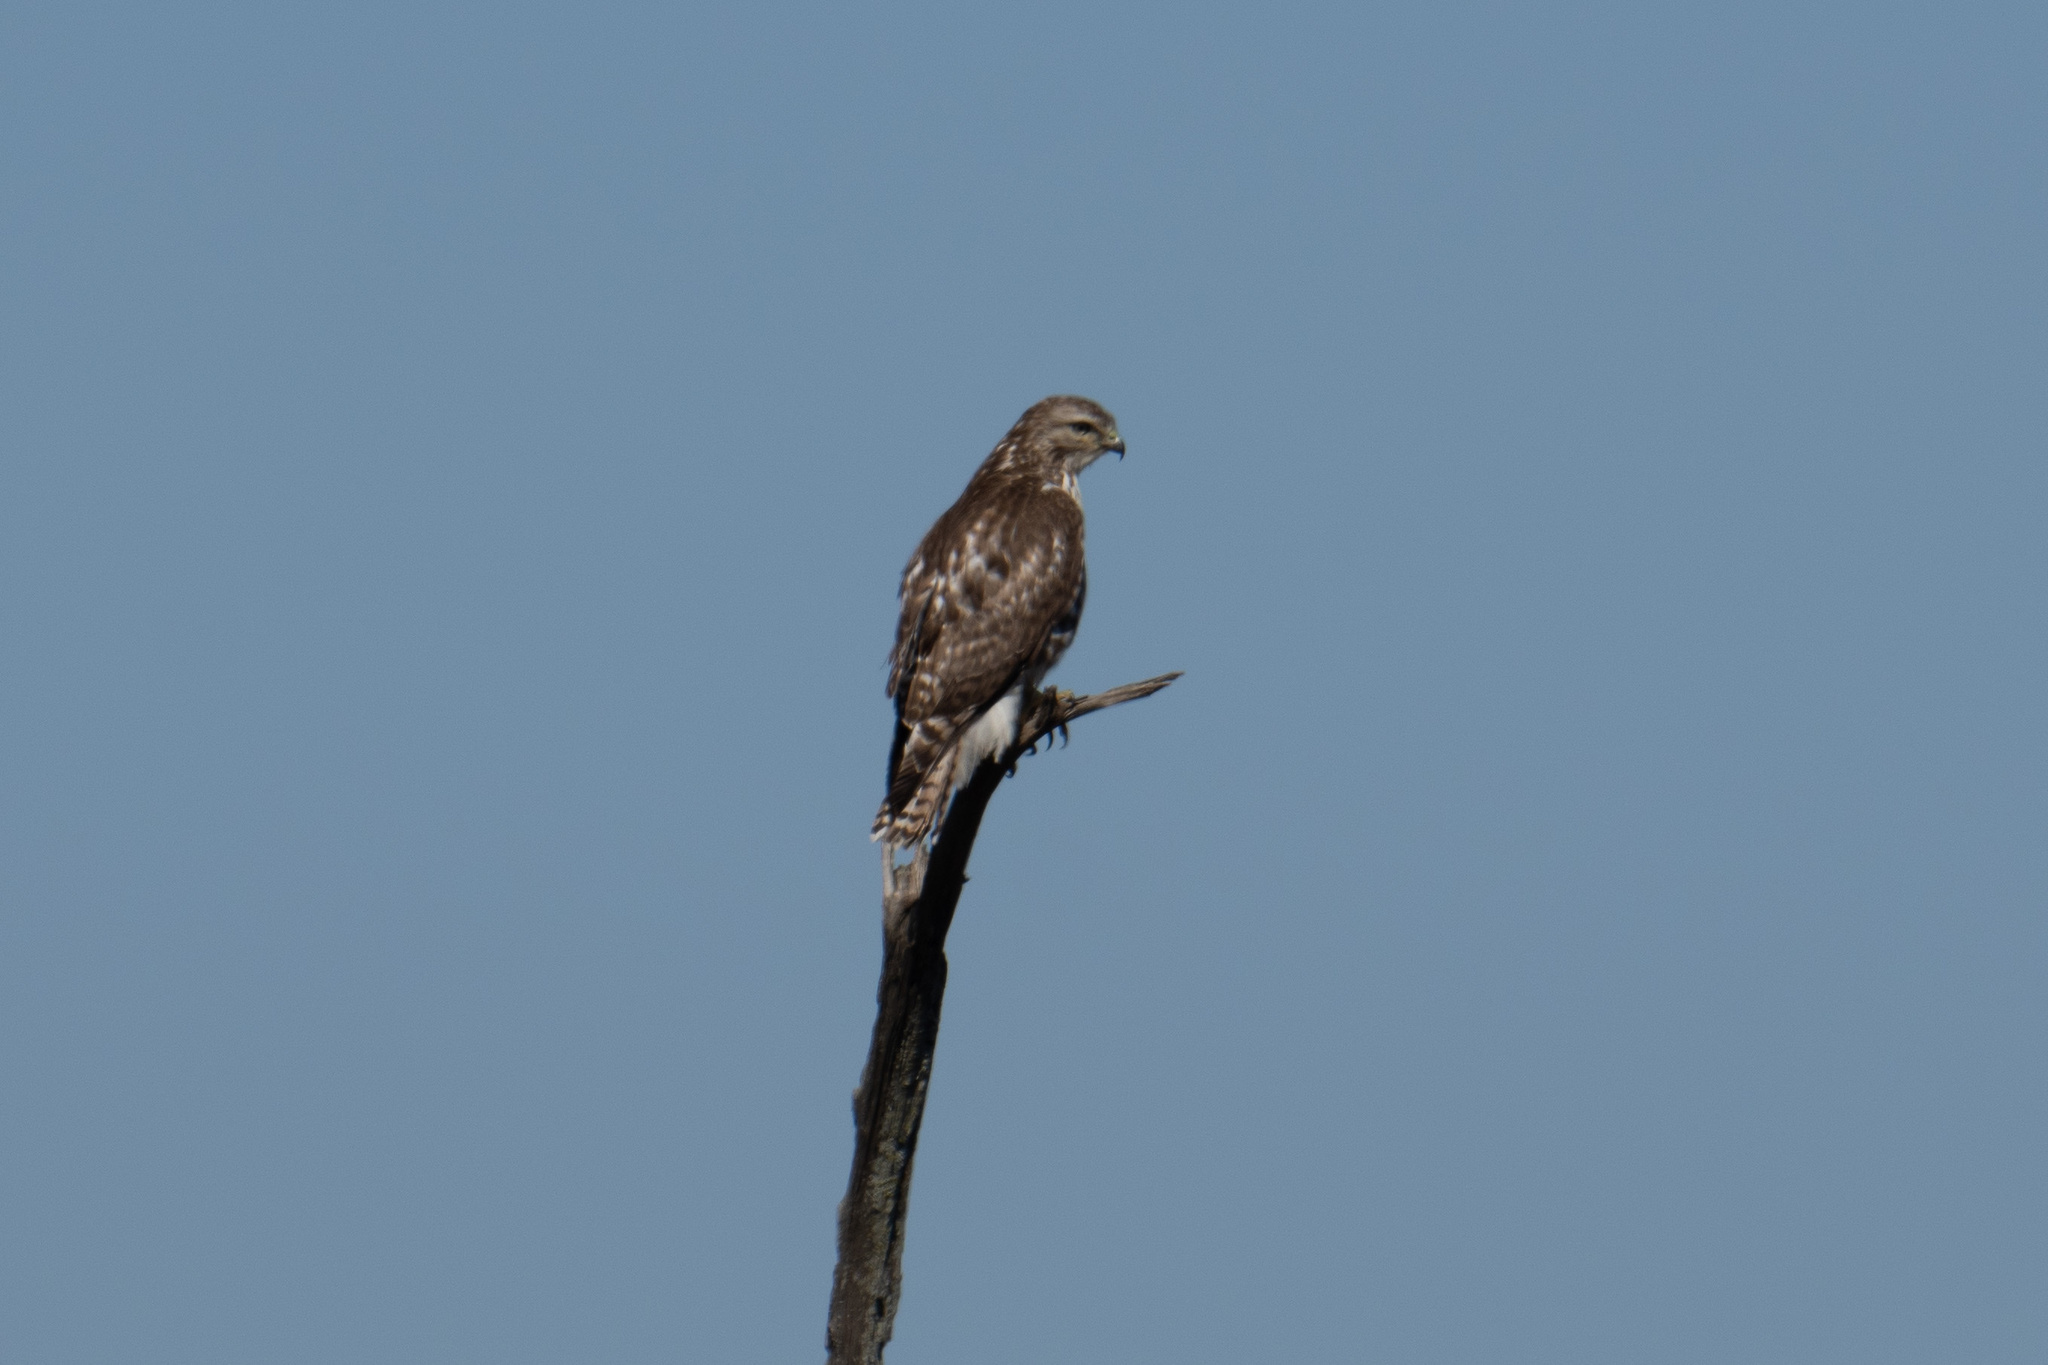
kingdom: Animalia
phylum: Chordata
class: Aves
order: Accipitriformes
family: Accipitridae
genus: Buteo
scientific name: Buteo jamaicensis
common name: Red-tailed hawk
